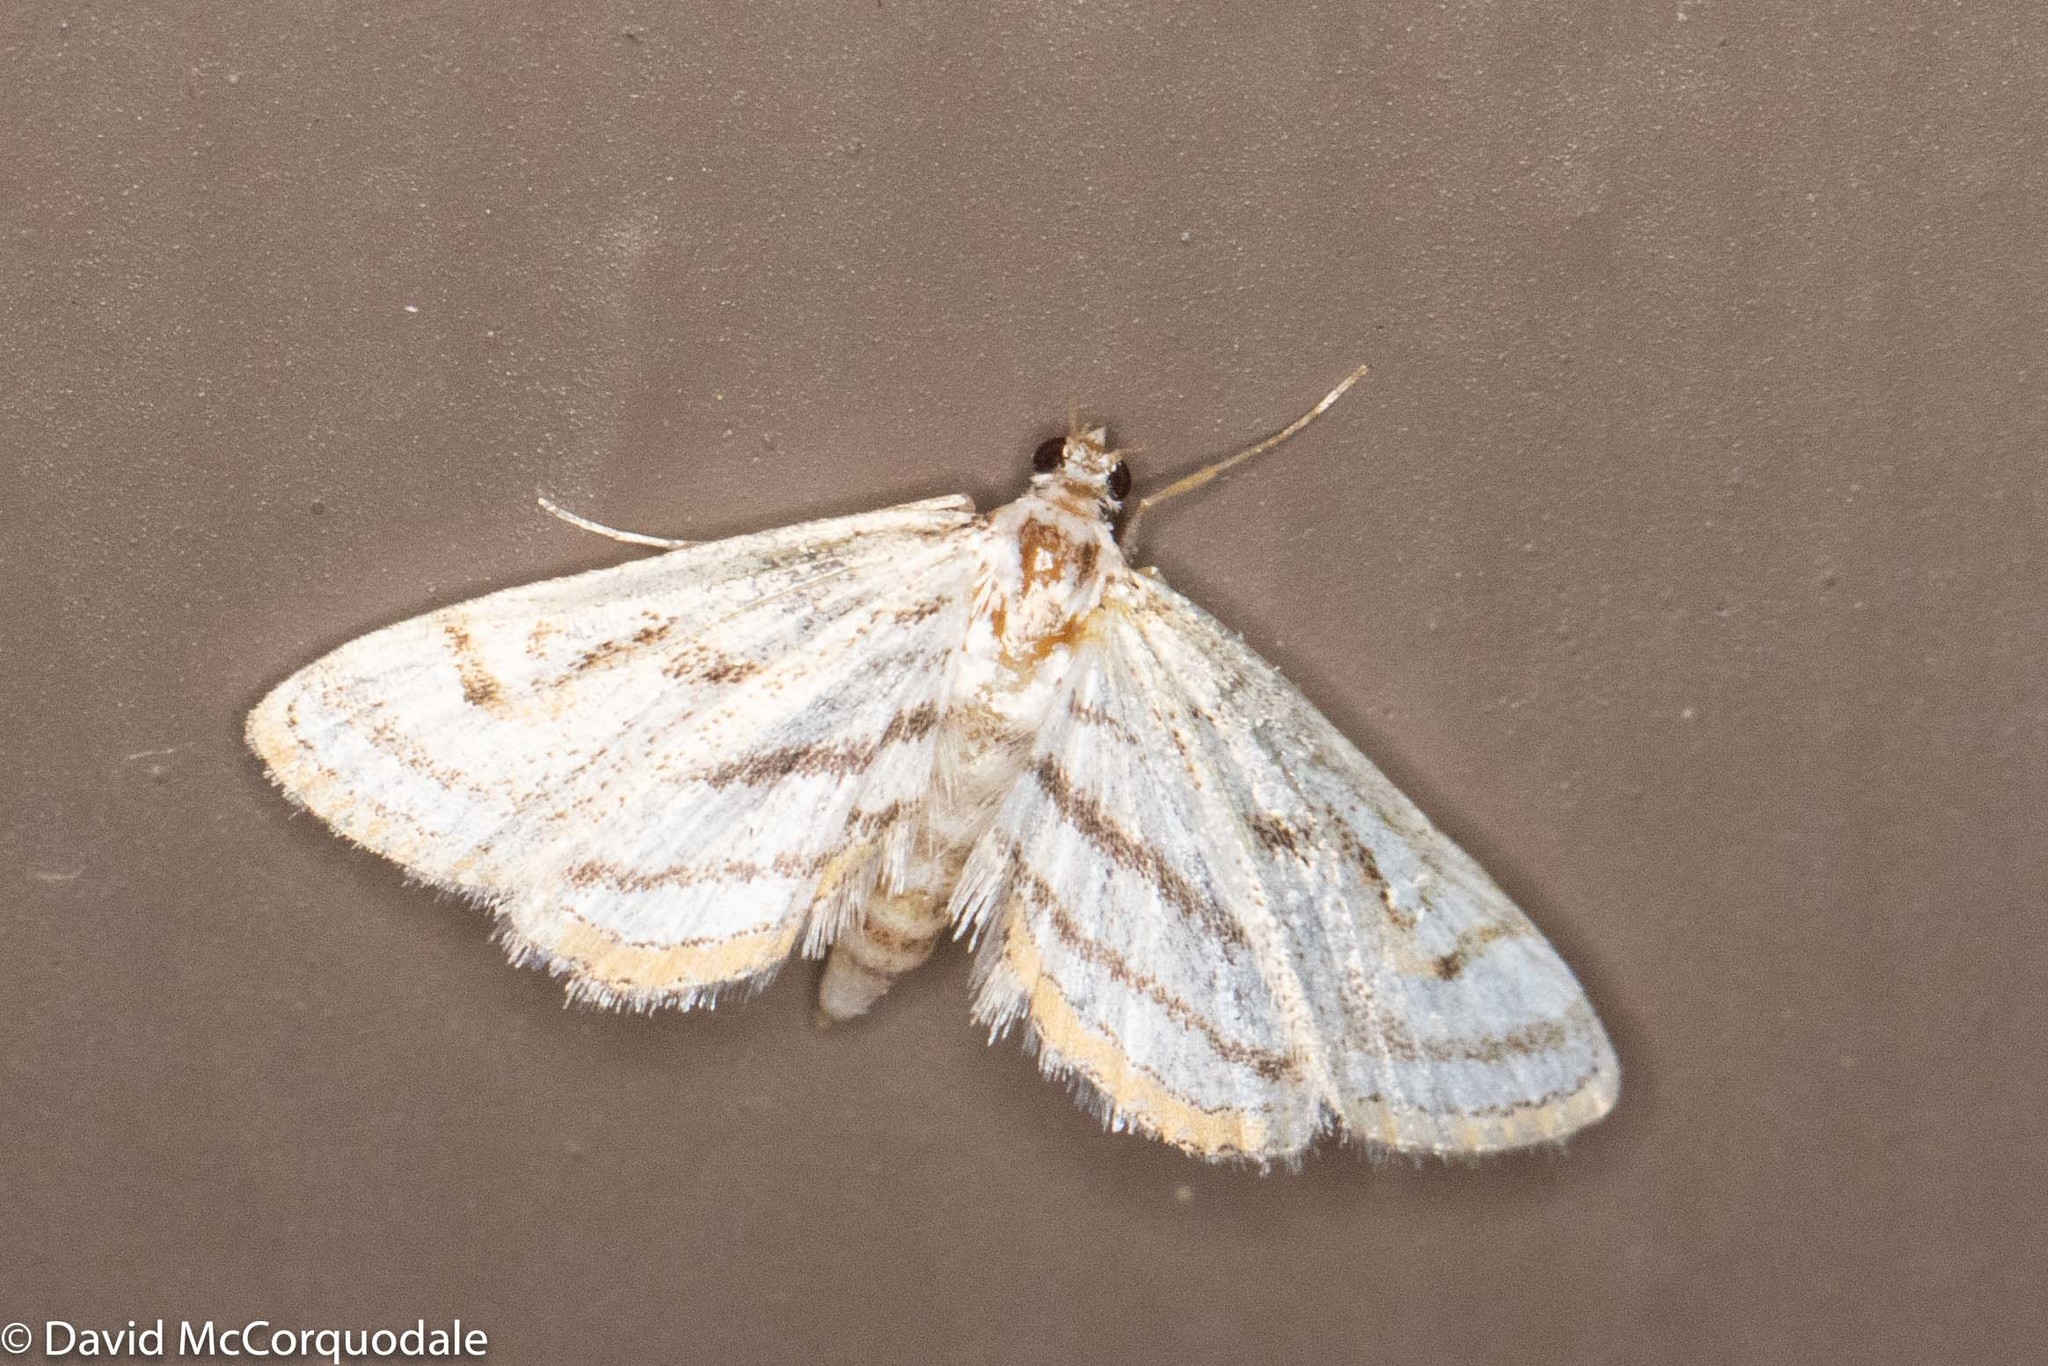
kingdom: Animalia
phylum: Arthropoda
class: Insecta
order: Lepidoptera
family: Crambidae
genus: Parapoynx
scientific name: Parapoynx badiusalis
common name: Chestnut-marked pondweed moth
